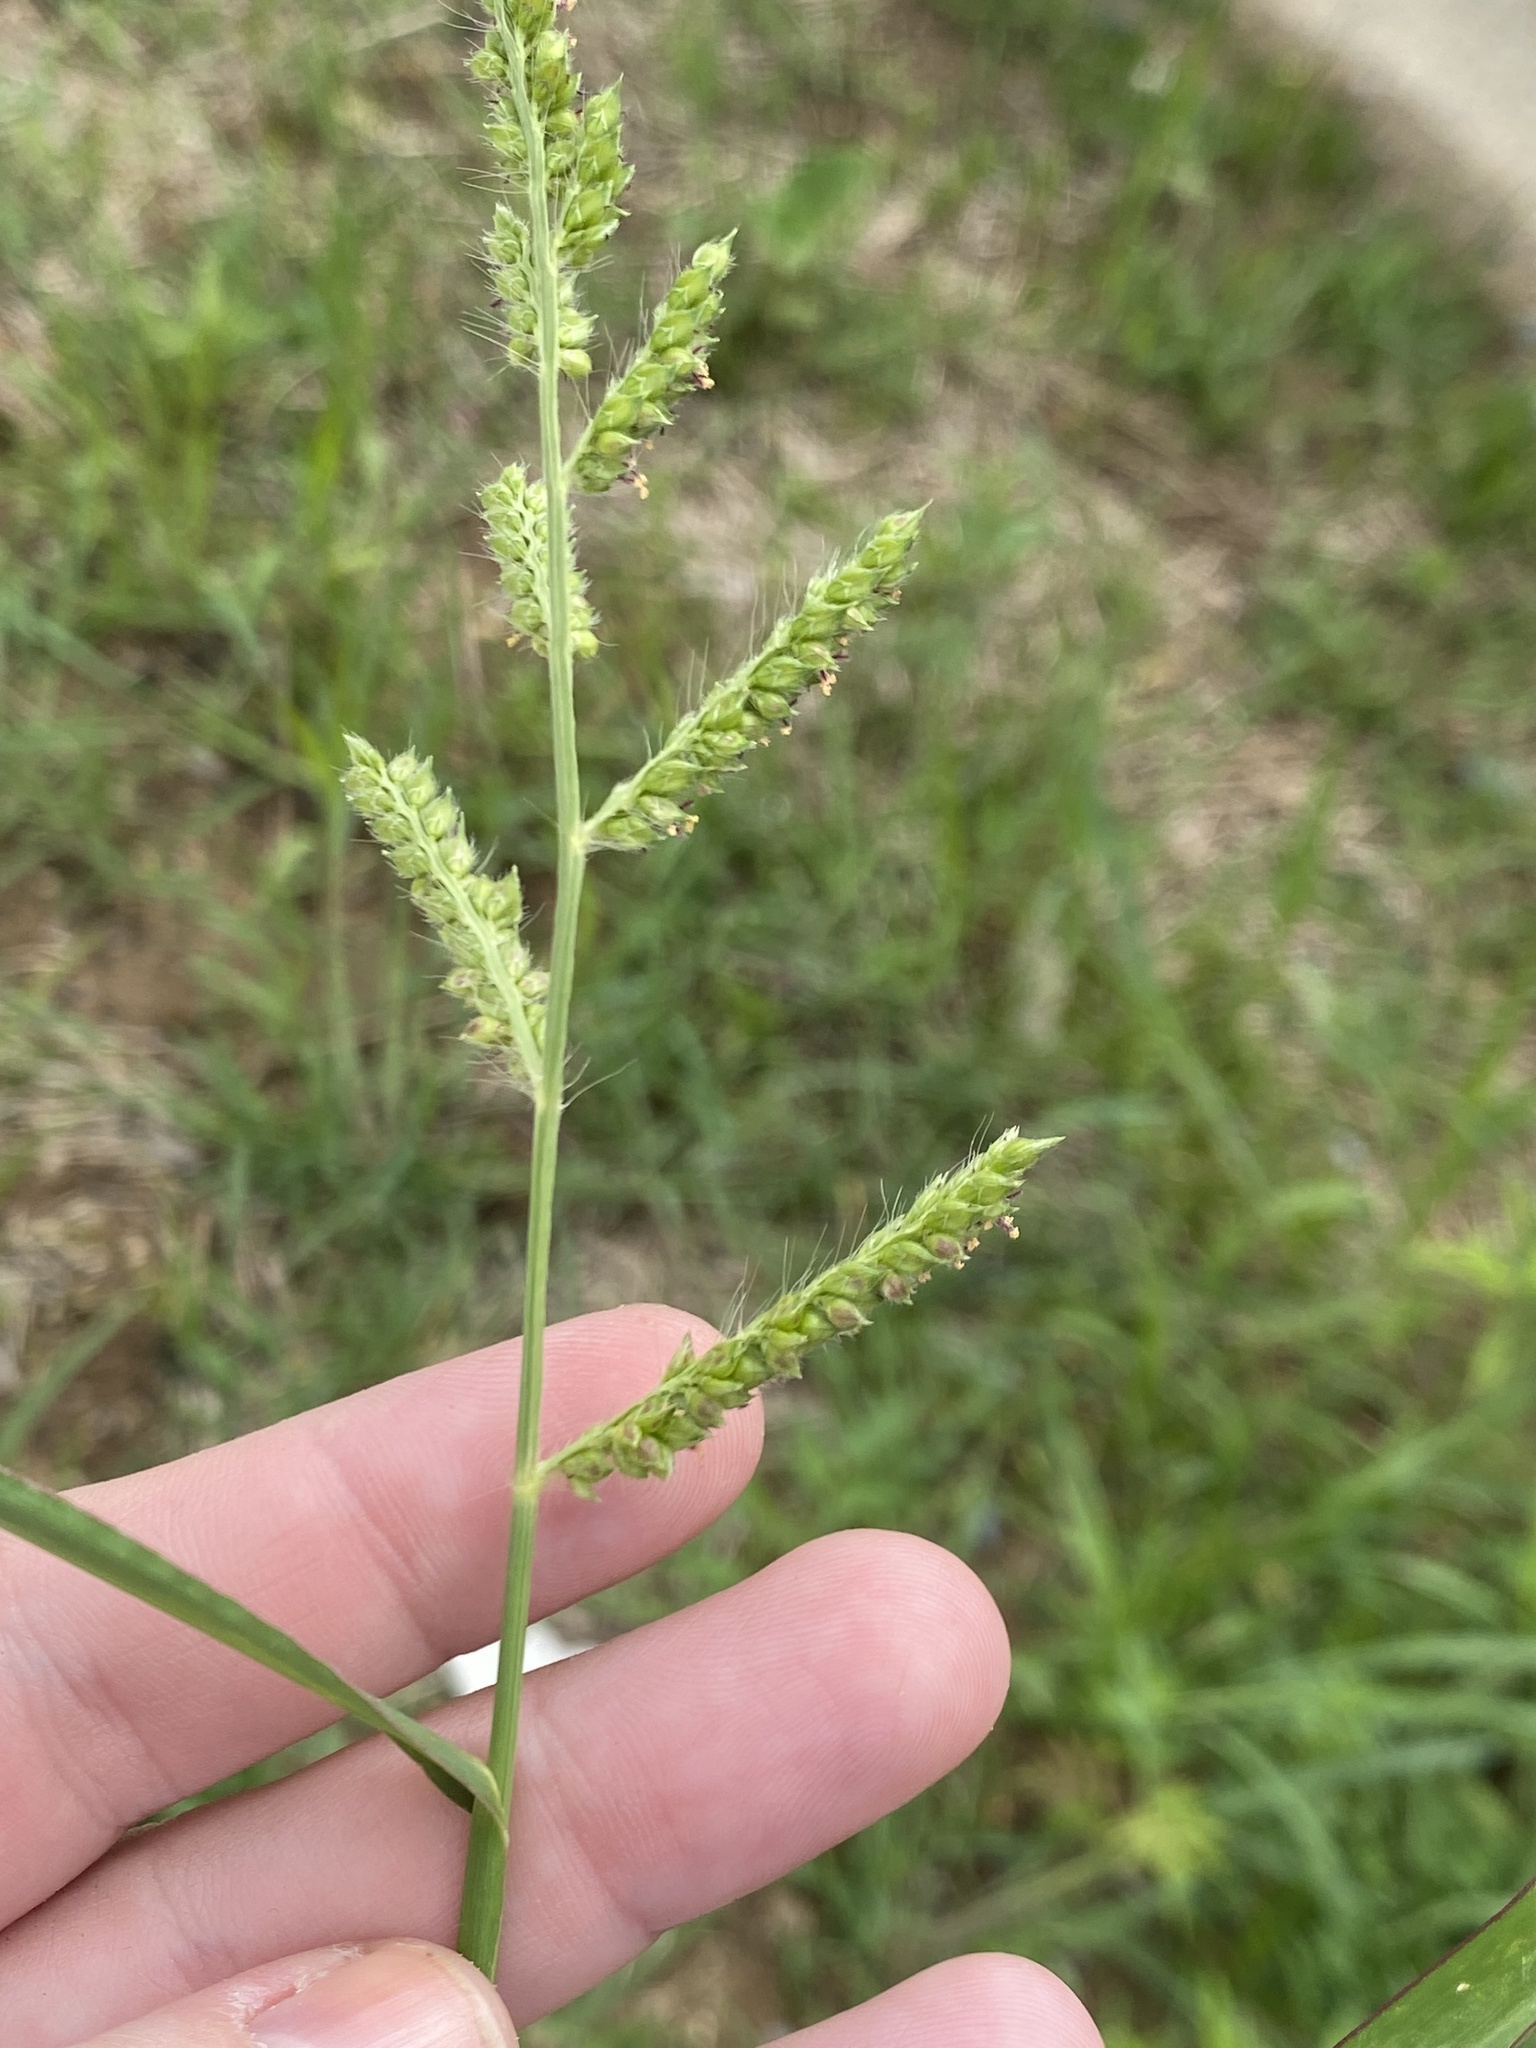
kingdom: Plantae
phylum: Tracheophyta
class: Liliopsida
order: Poales
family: Poaceae
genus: Echinochloa
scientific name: Echinochloa crus-galli
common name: Cockspur
